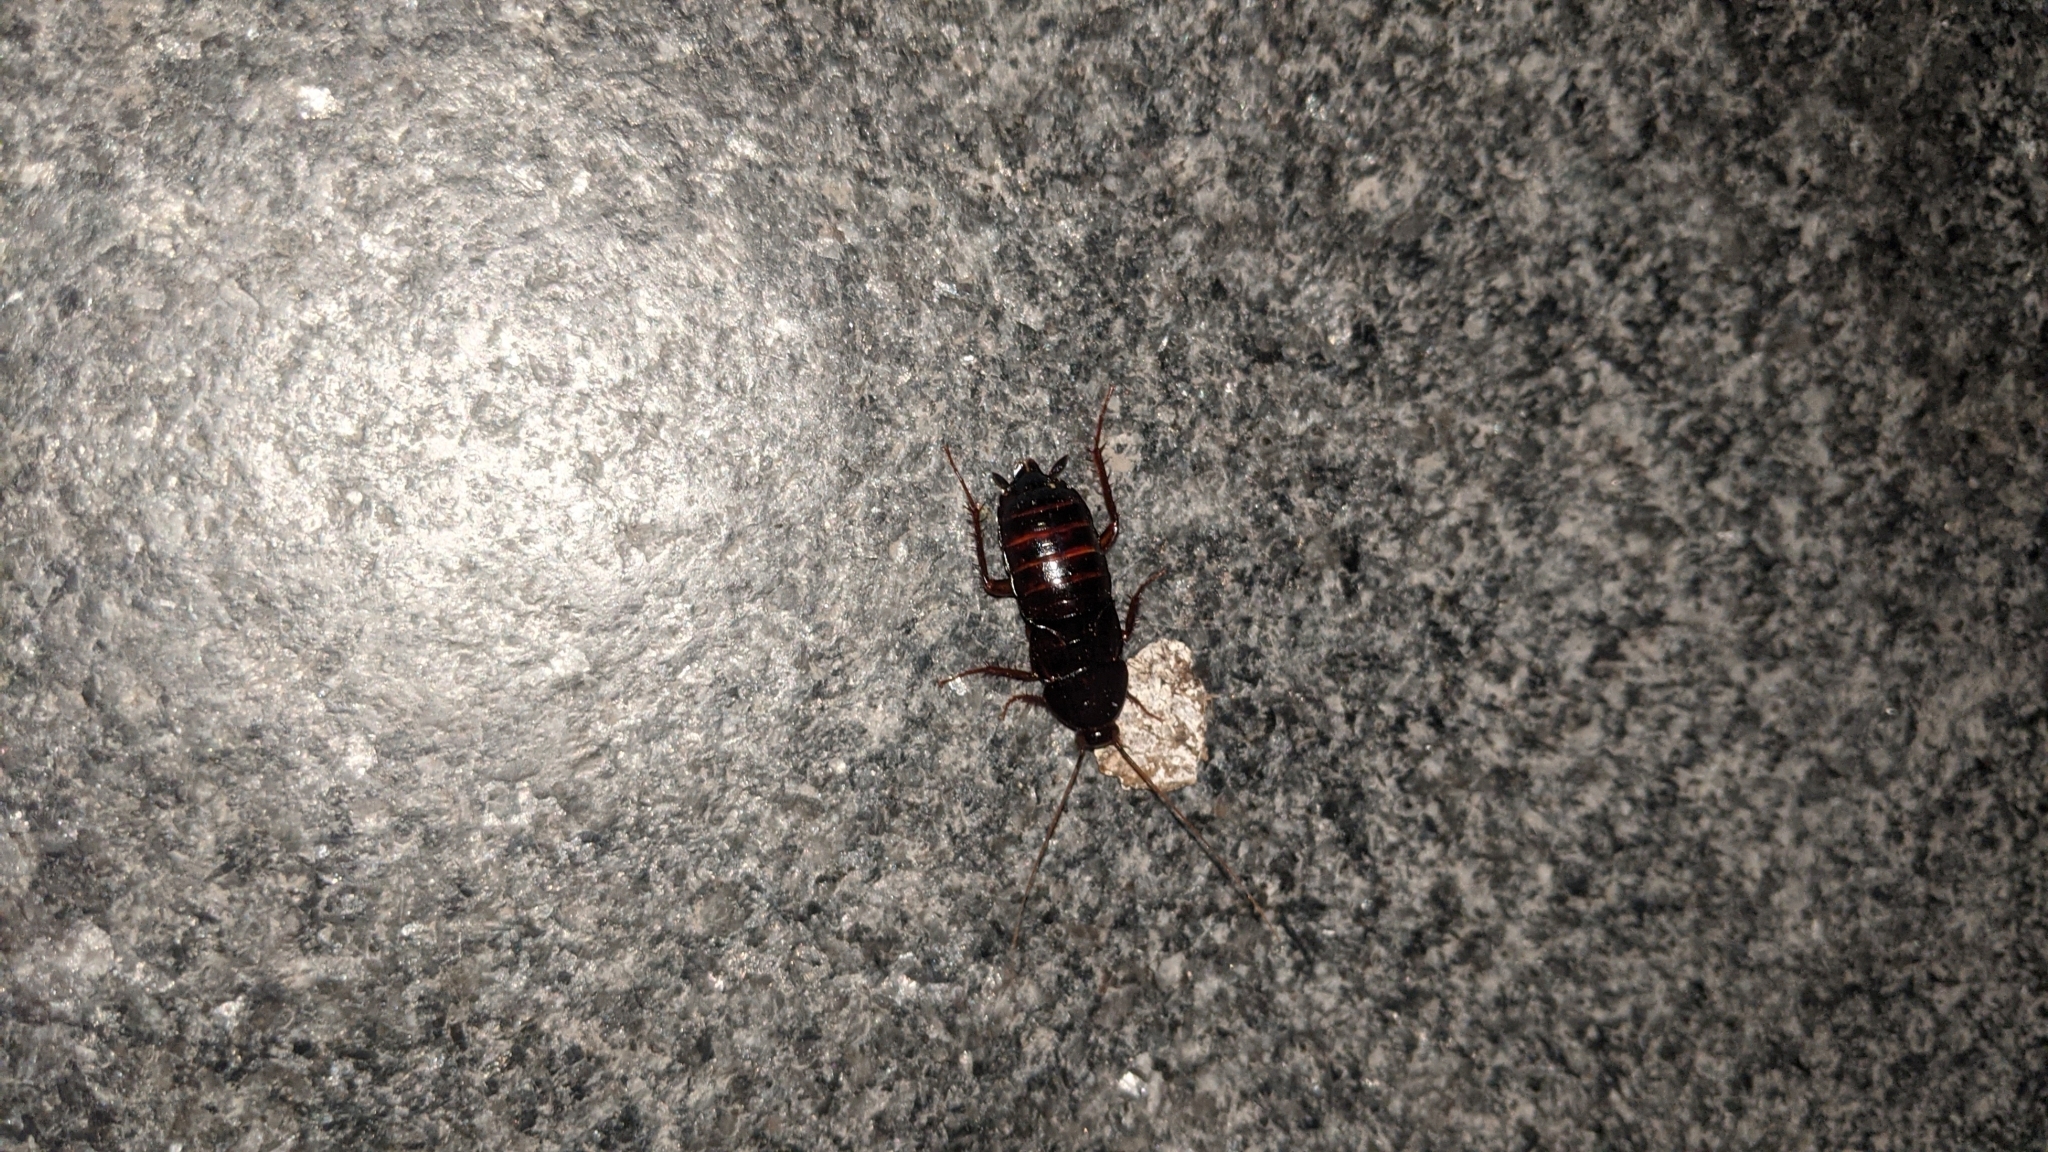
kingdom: Animalia
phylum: Arthropoda
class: Insecta
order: Blattodea
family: Blattidae
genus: Blatta
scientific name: Blatta orientalis
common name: Oriental cockroach
